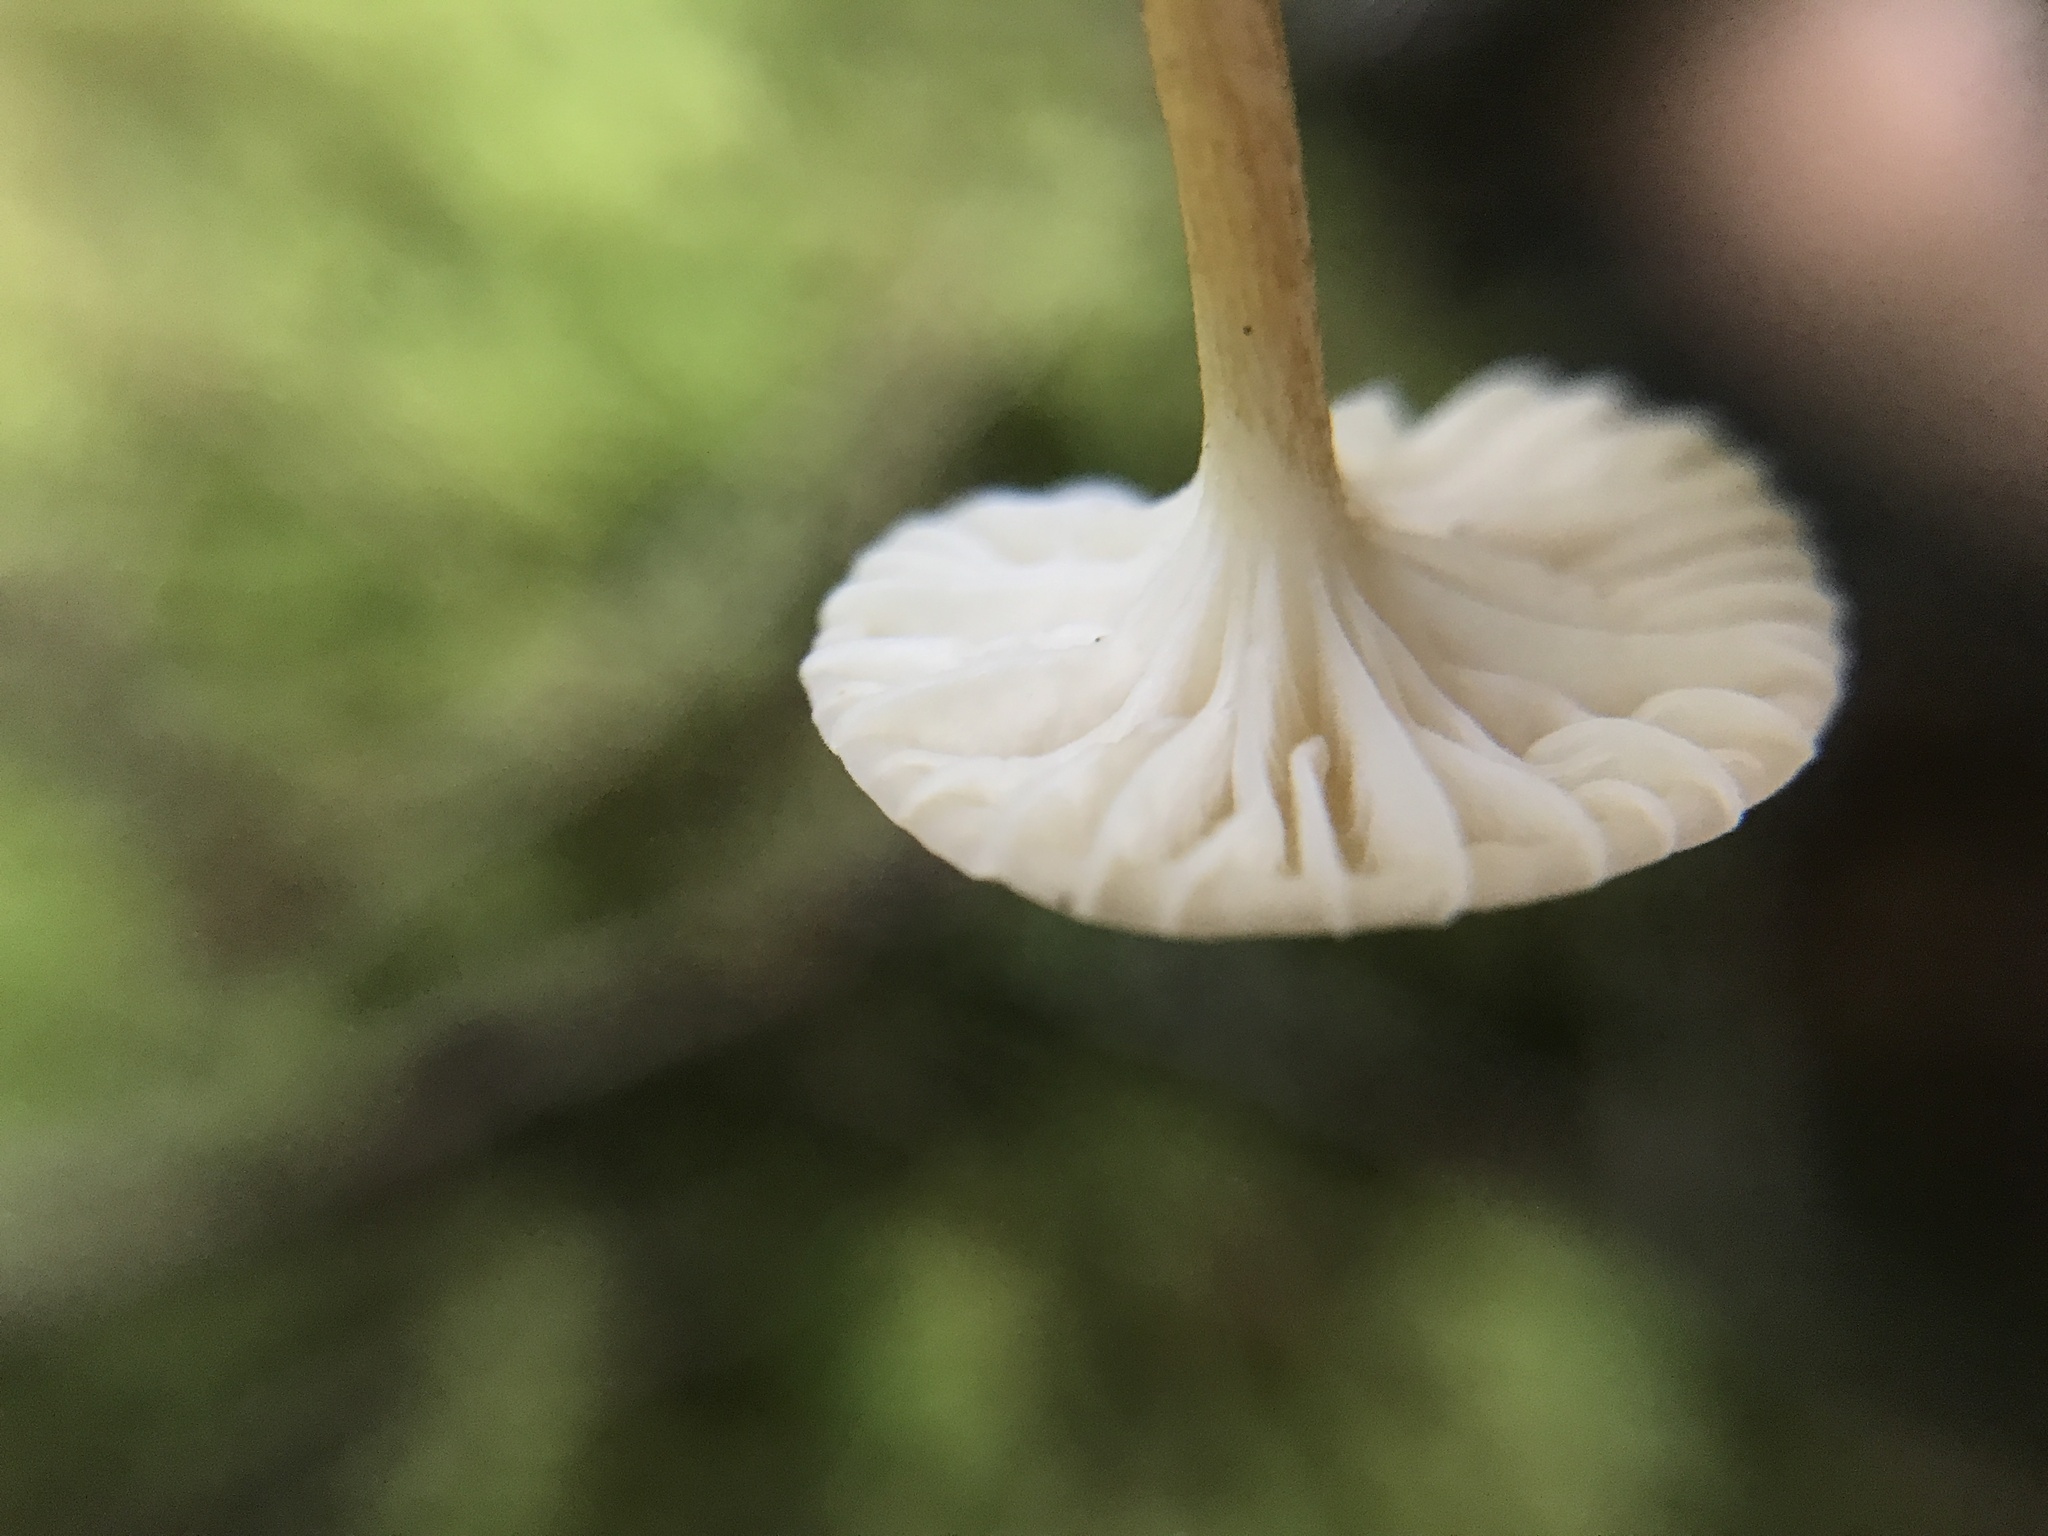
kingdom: Fungi
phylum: Basidiomycota
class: Agaricomycetes
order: Agaricales
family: Physalacriaceae
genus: Cyptotrama
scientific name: Cyptotrama chrysopepla
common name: Golden coincap
